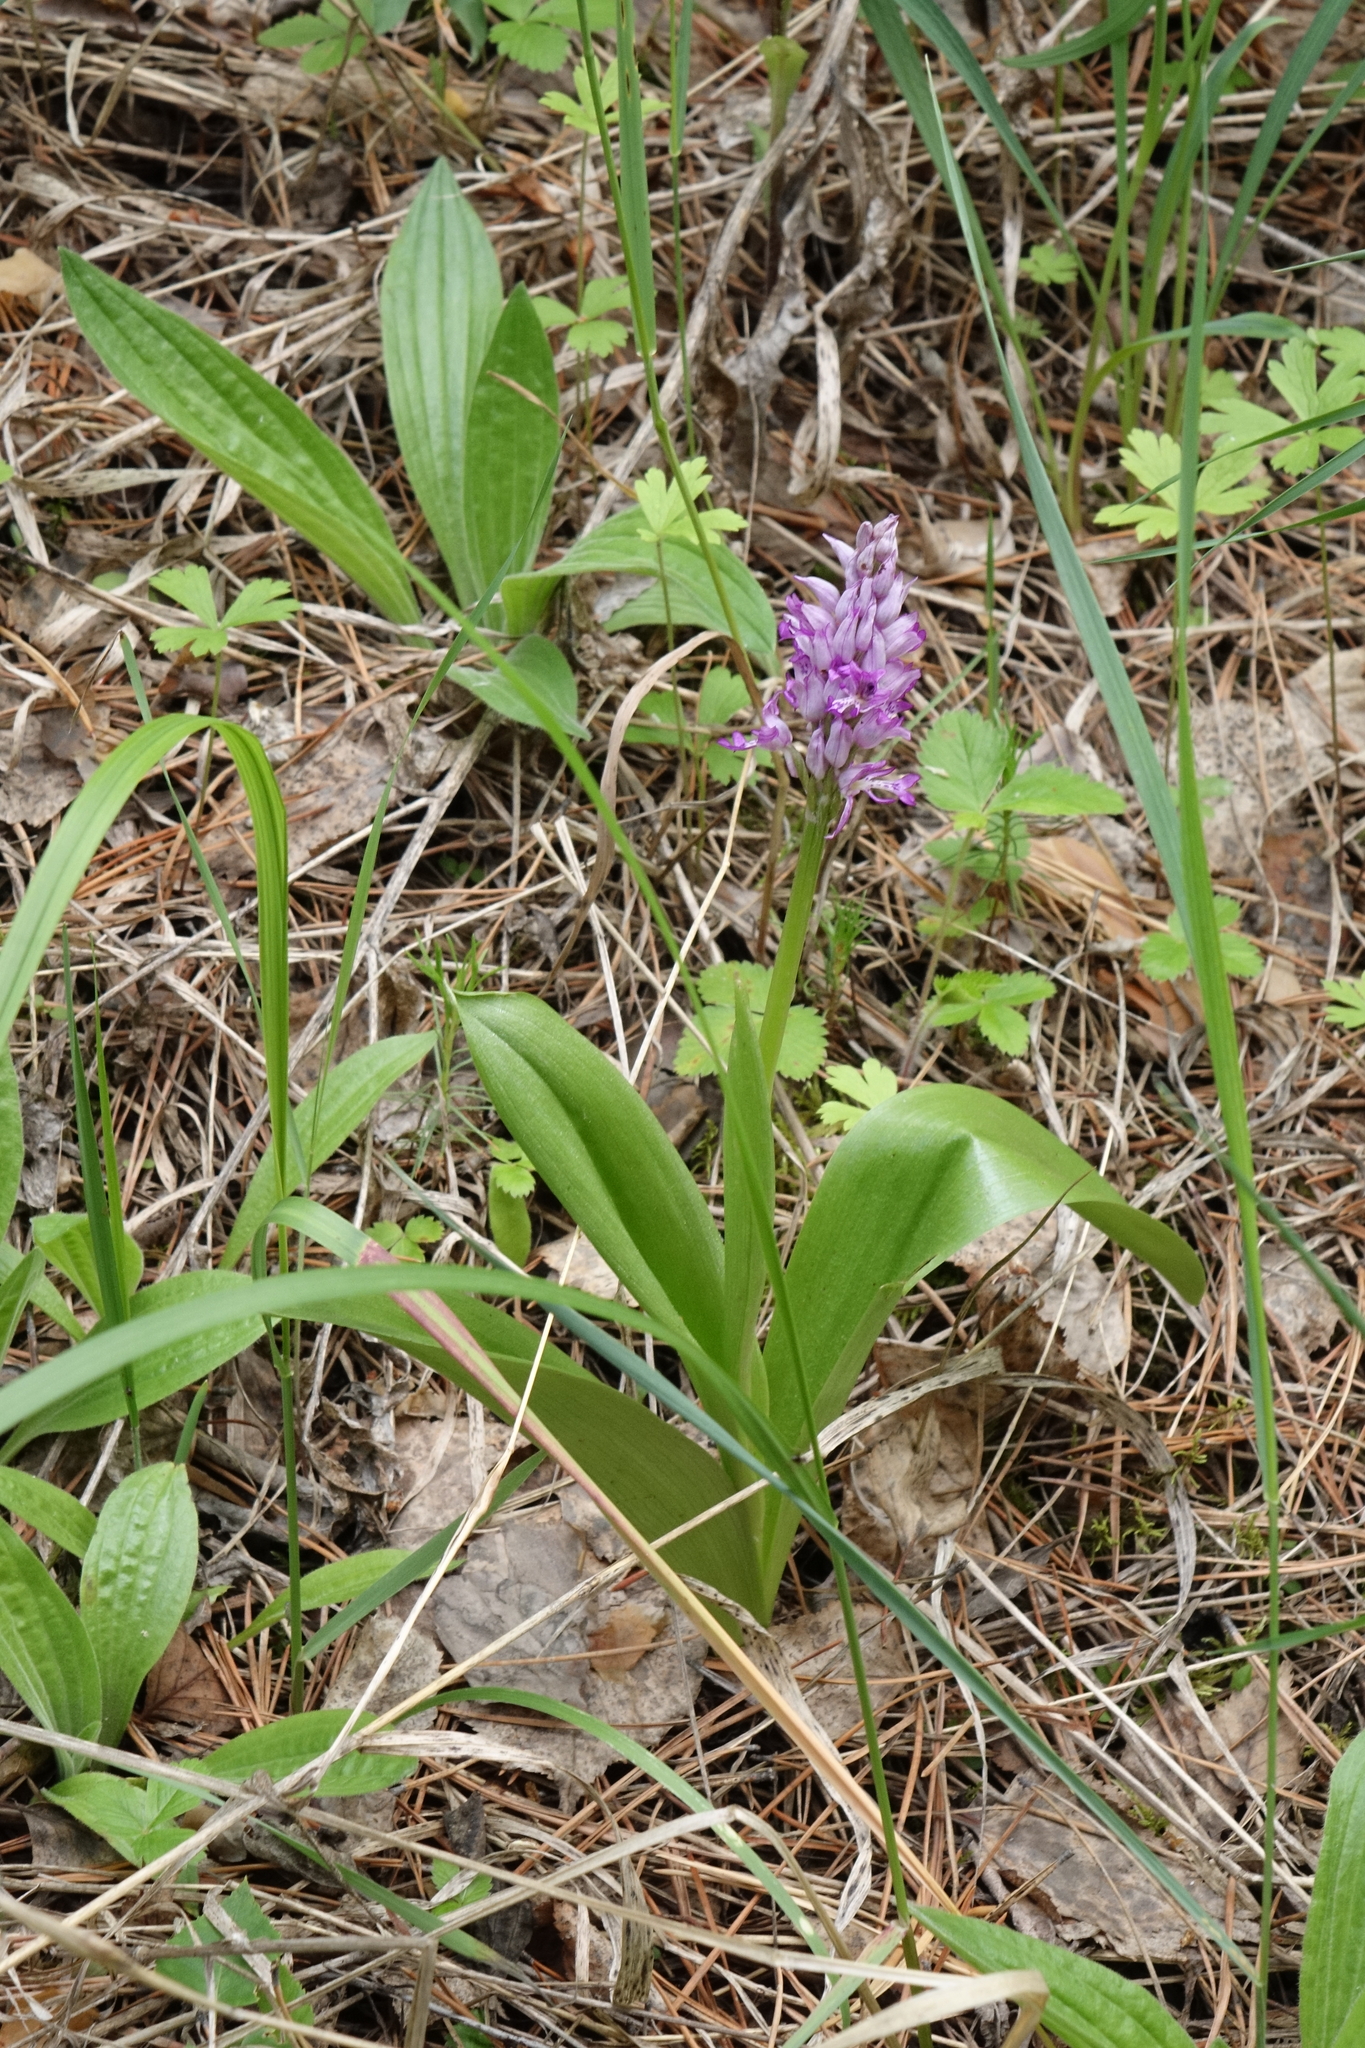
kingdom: Plantae
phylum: Tracheophyta
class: Liliopsida
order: Asparagales
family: Orchidaceae
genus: Orchis
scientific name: Orchis militaris
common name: Military orchid
